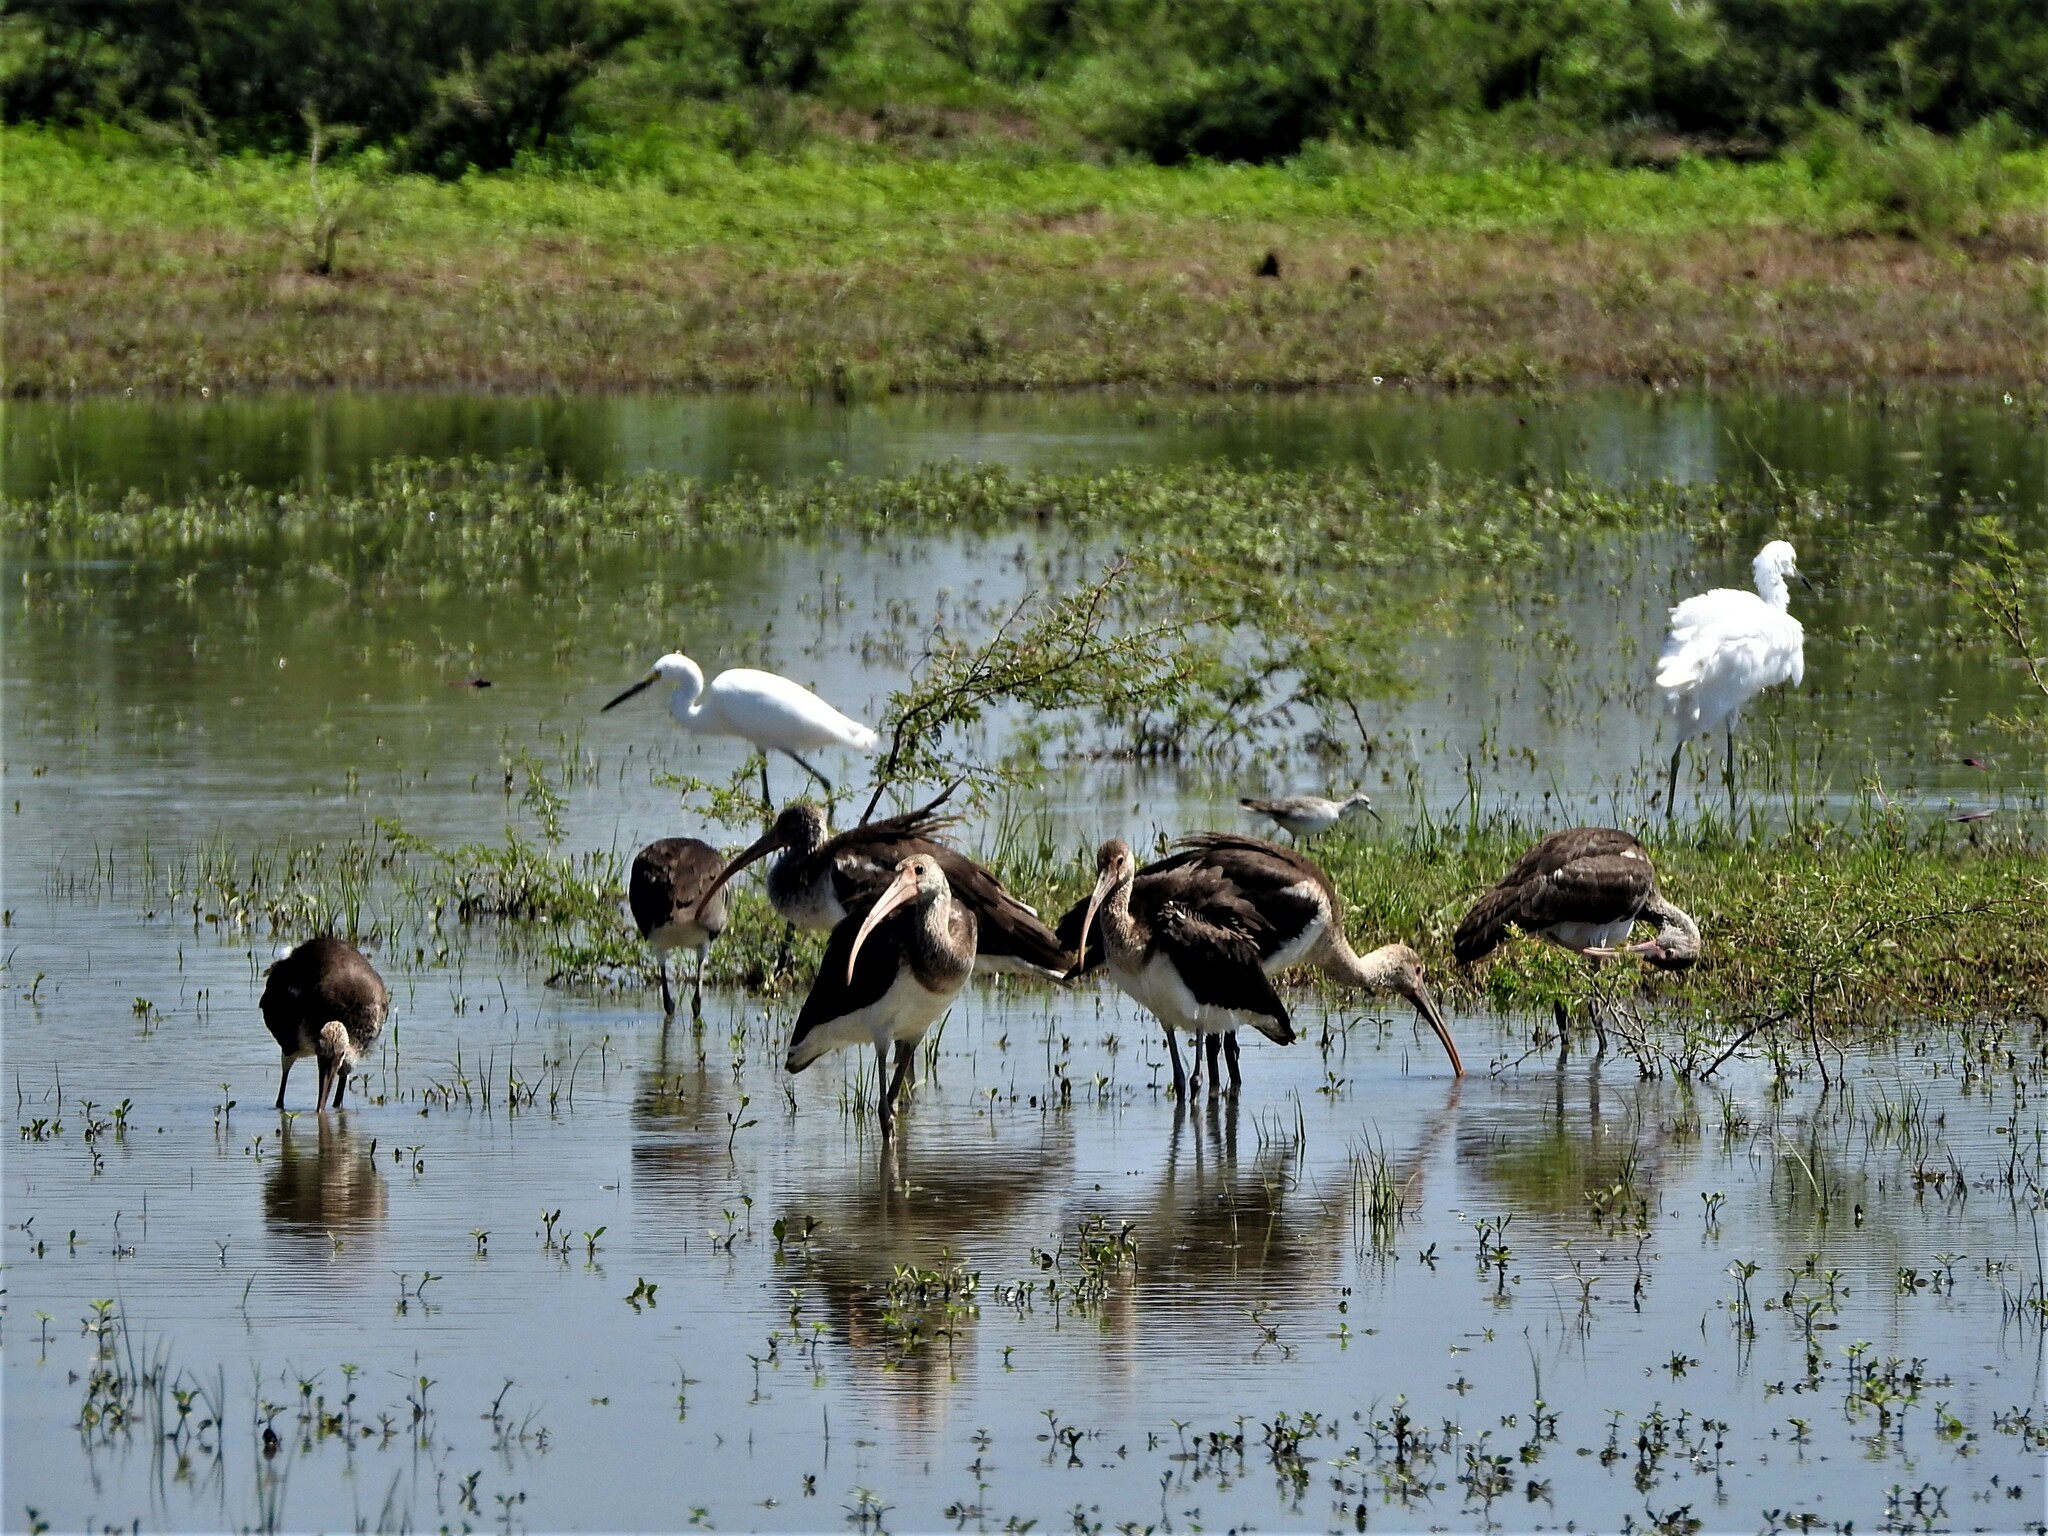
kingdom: Animalia
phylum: Chordata
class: Aves
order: Pelecaniformes
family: Threskiornithidae
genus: Eudocimus
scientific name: Eudocimus albus
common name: White ibis
